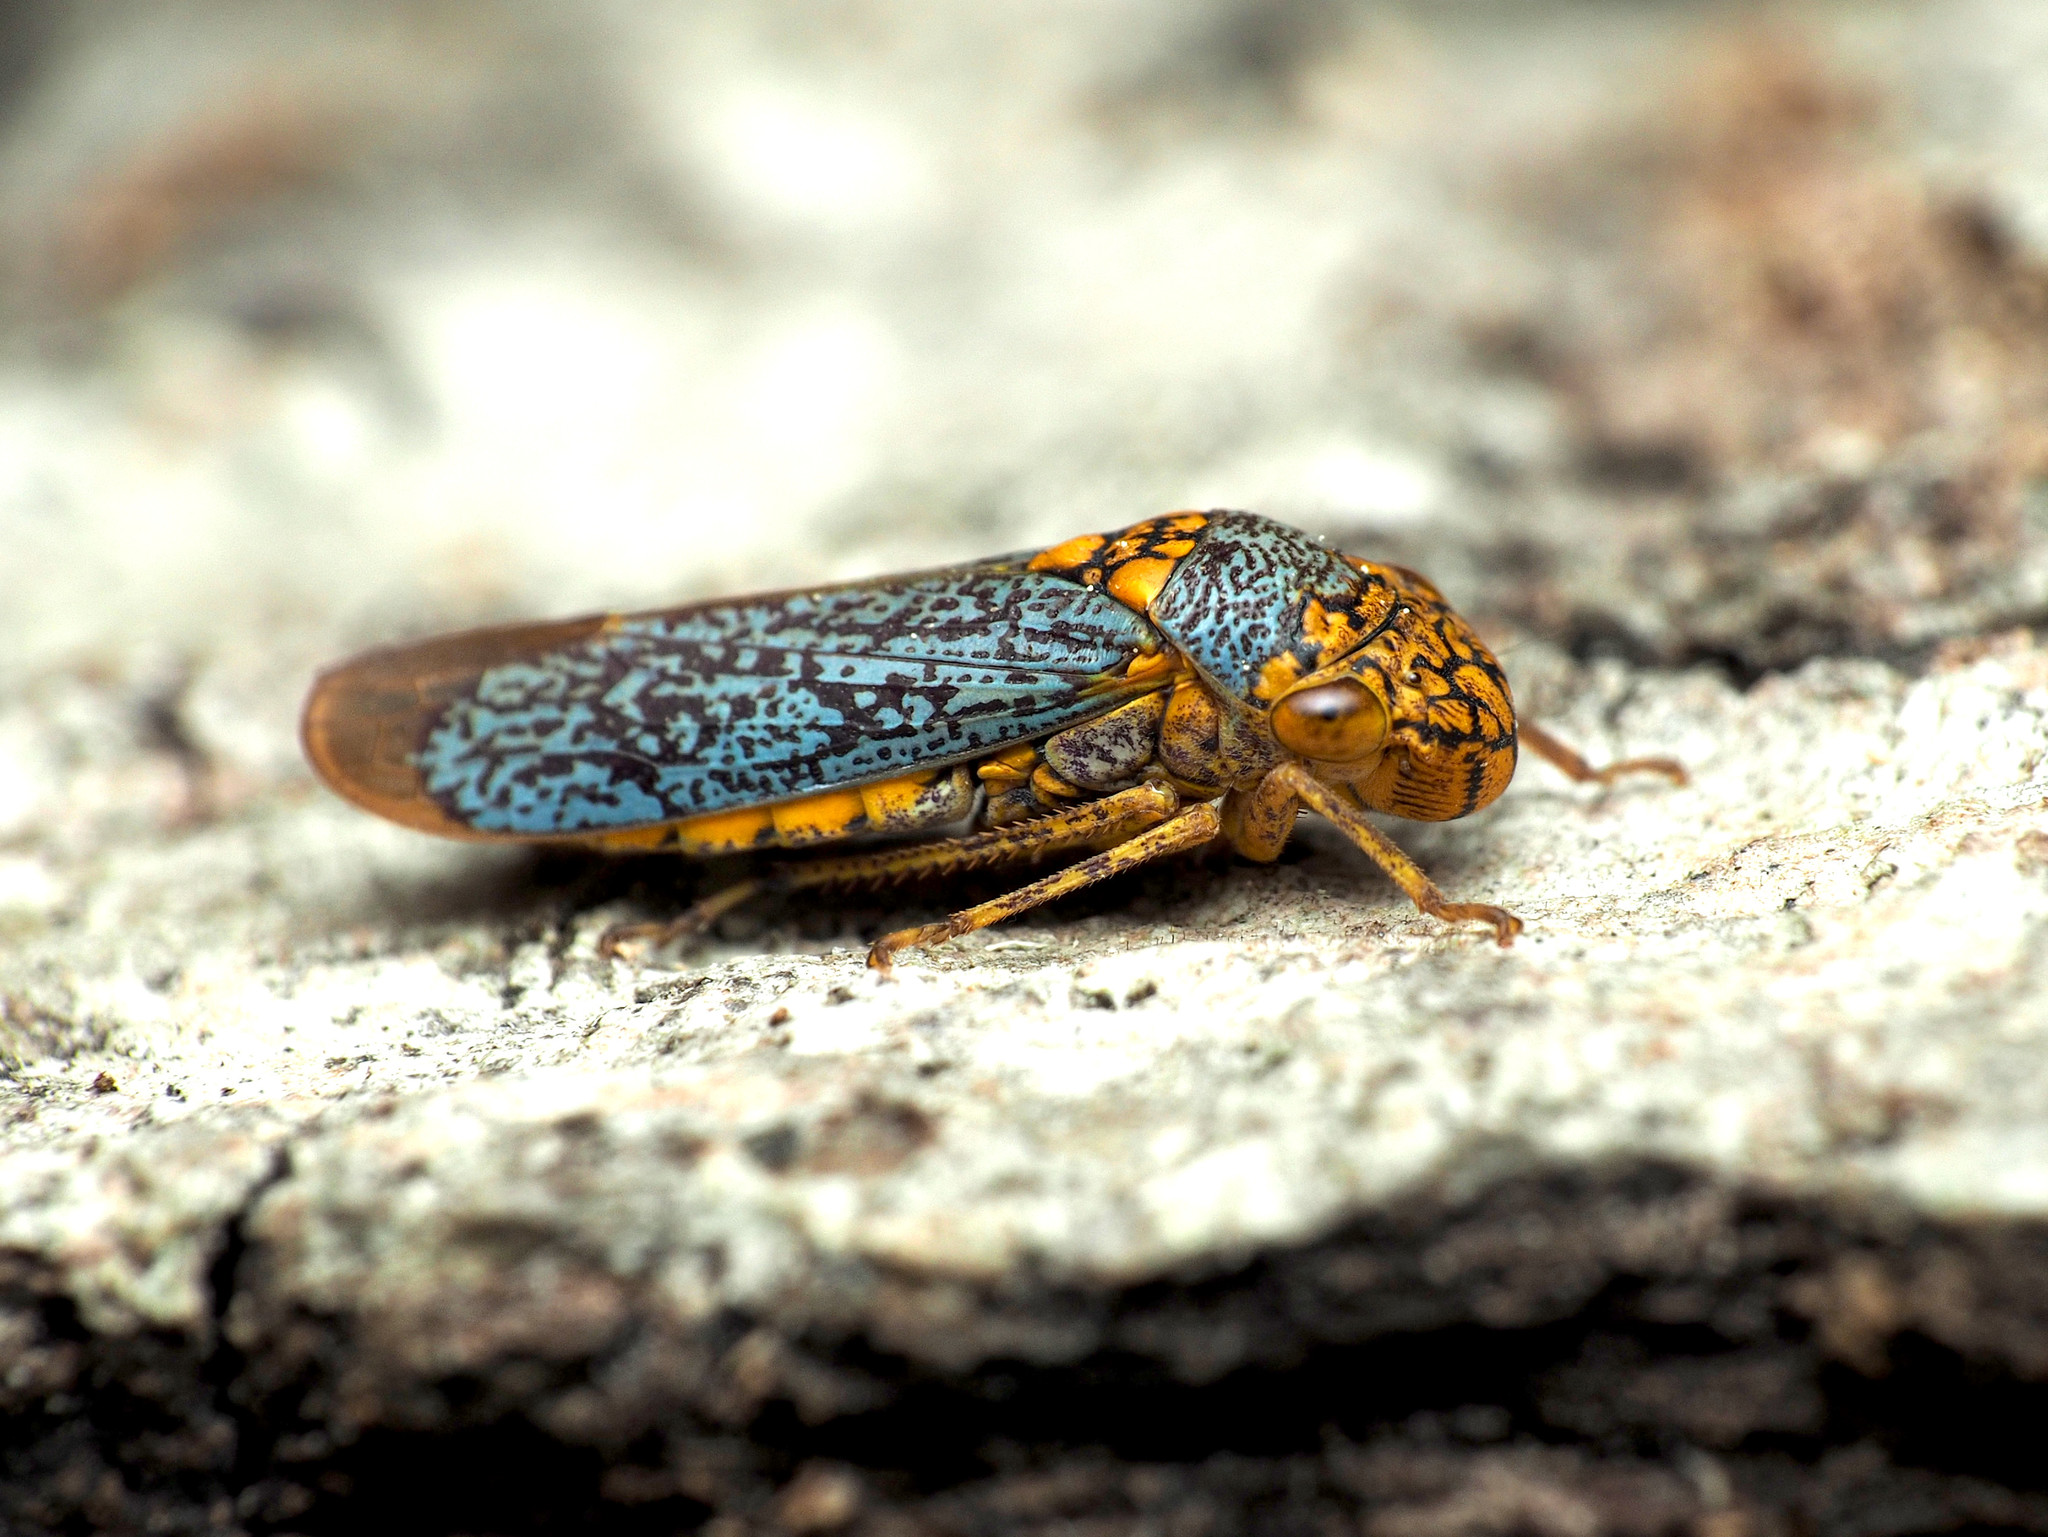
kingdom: Animalia
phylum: Arthropoda
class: Insecta
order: Hemiptera
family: Cicadellidae
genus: Oncometopia
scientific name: Oncometopia orbona
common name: Broad-headed sharpshooter
